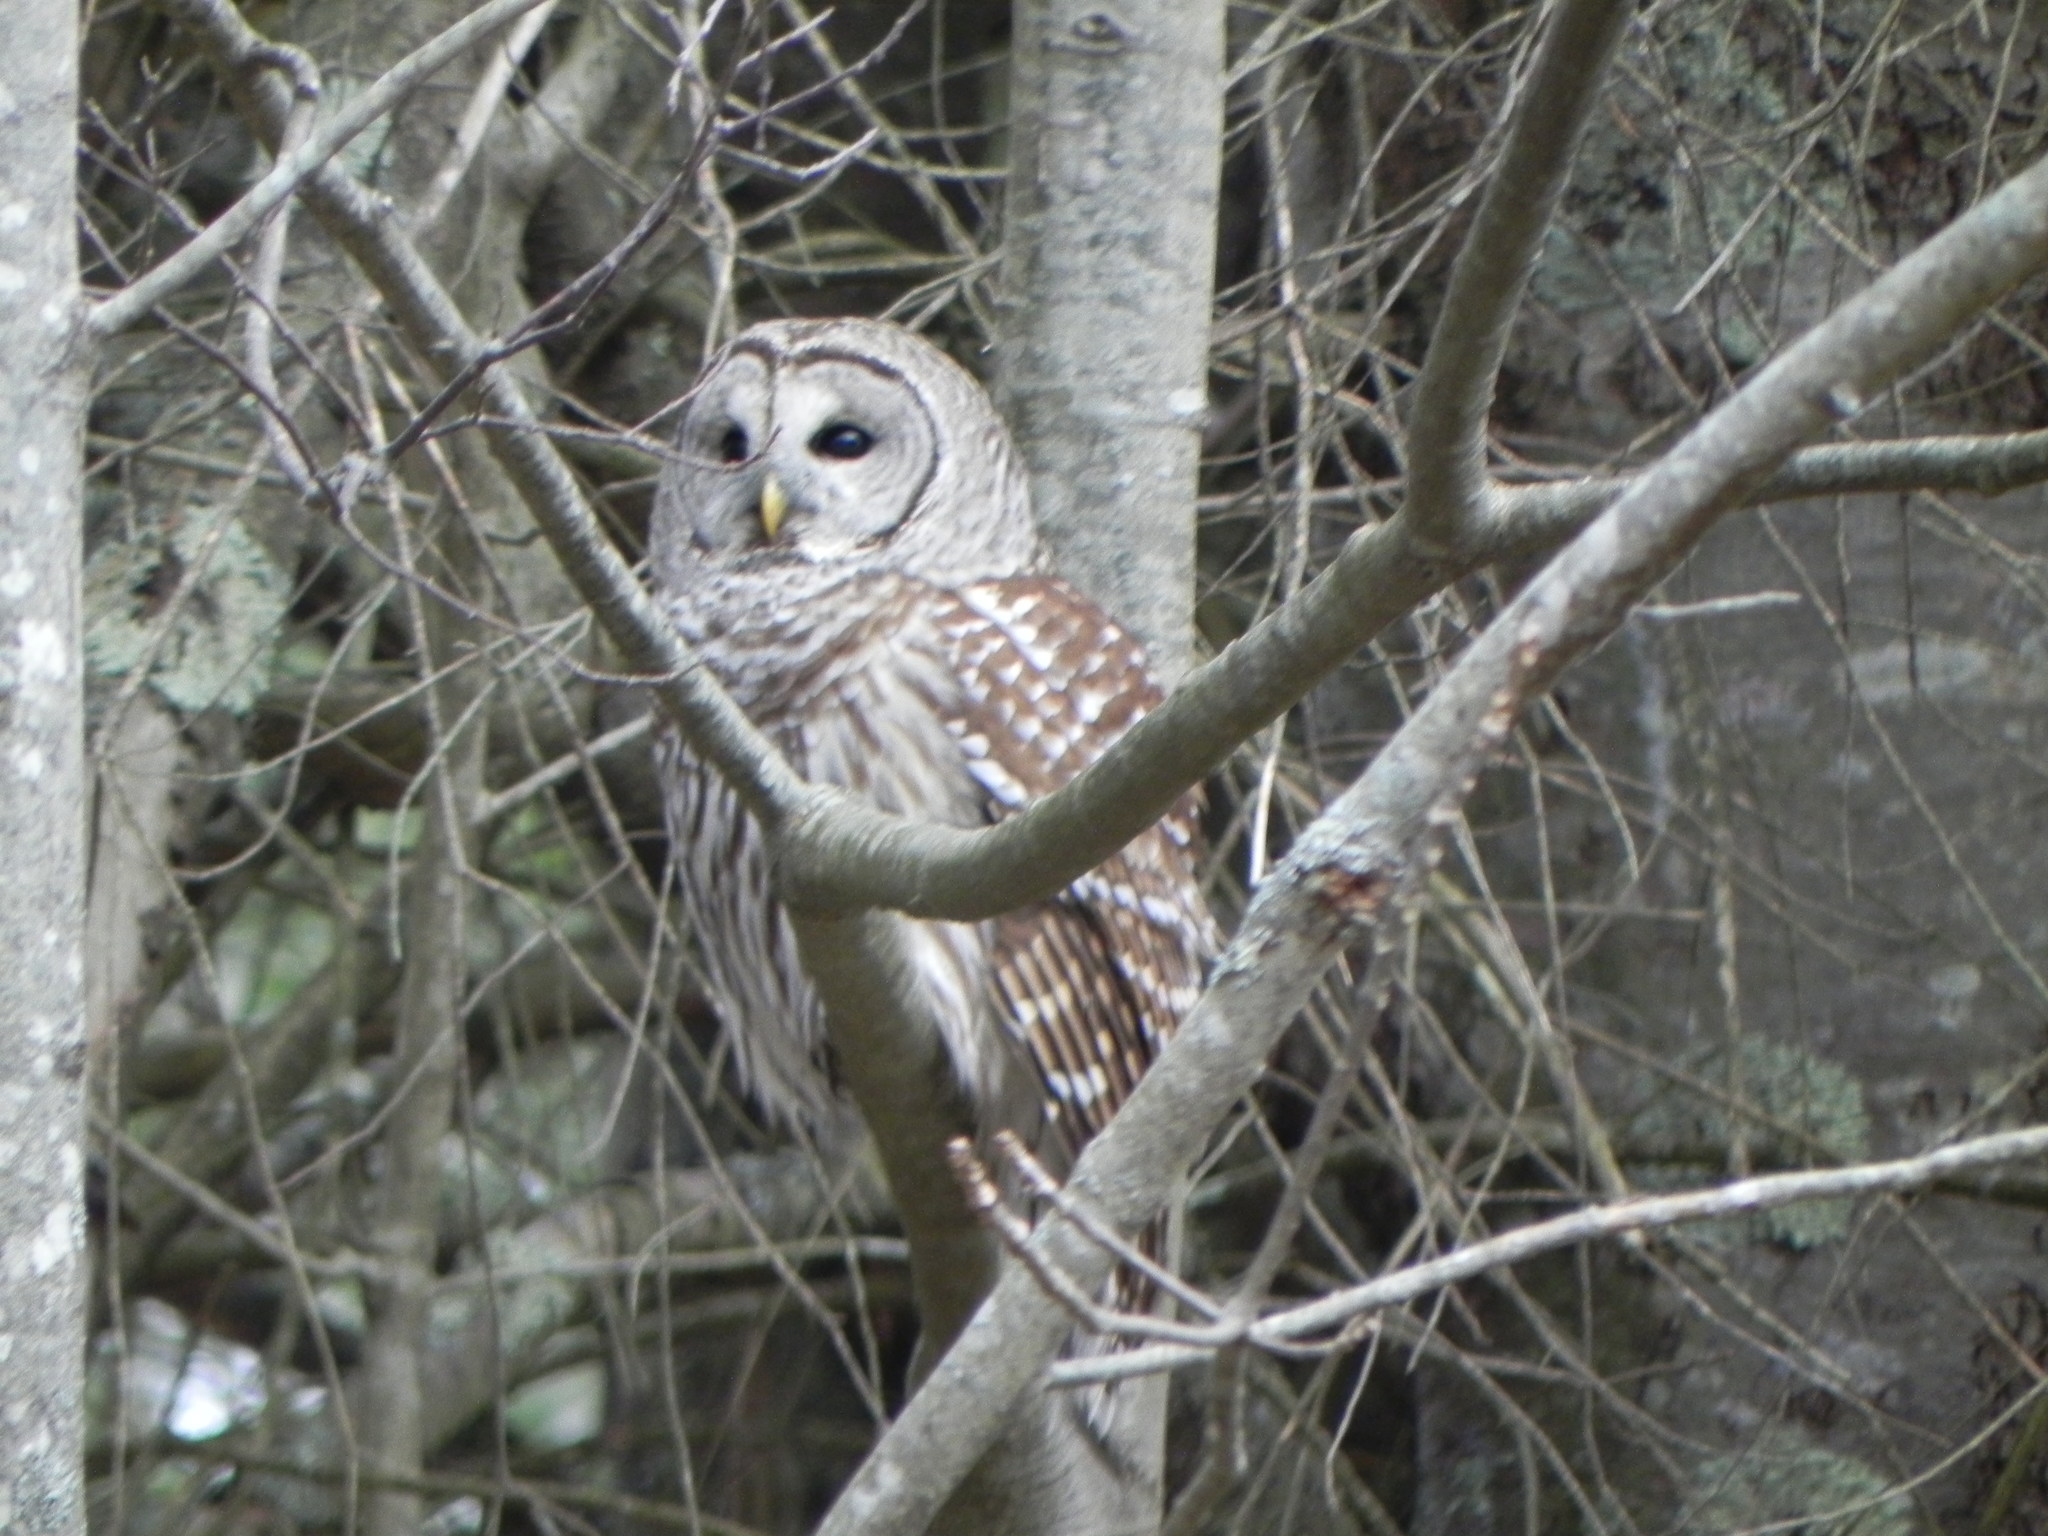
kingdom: Animalia
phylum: Chordata
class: Aves
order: Strigiformes
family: Strigidae
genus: Strix
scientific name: Strix varia
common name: Barred owl
